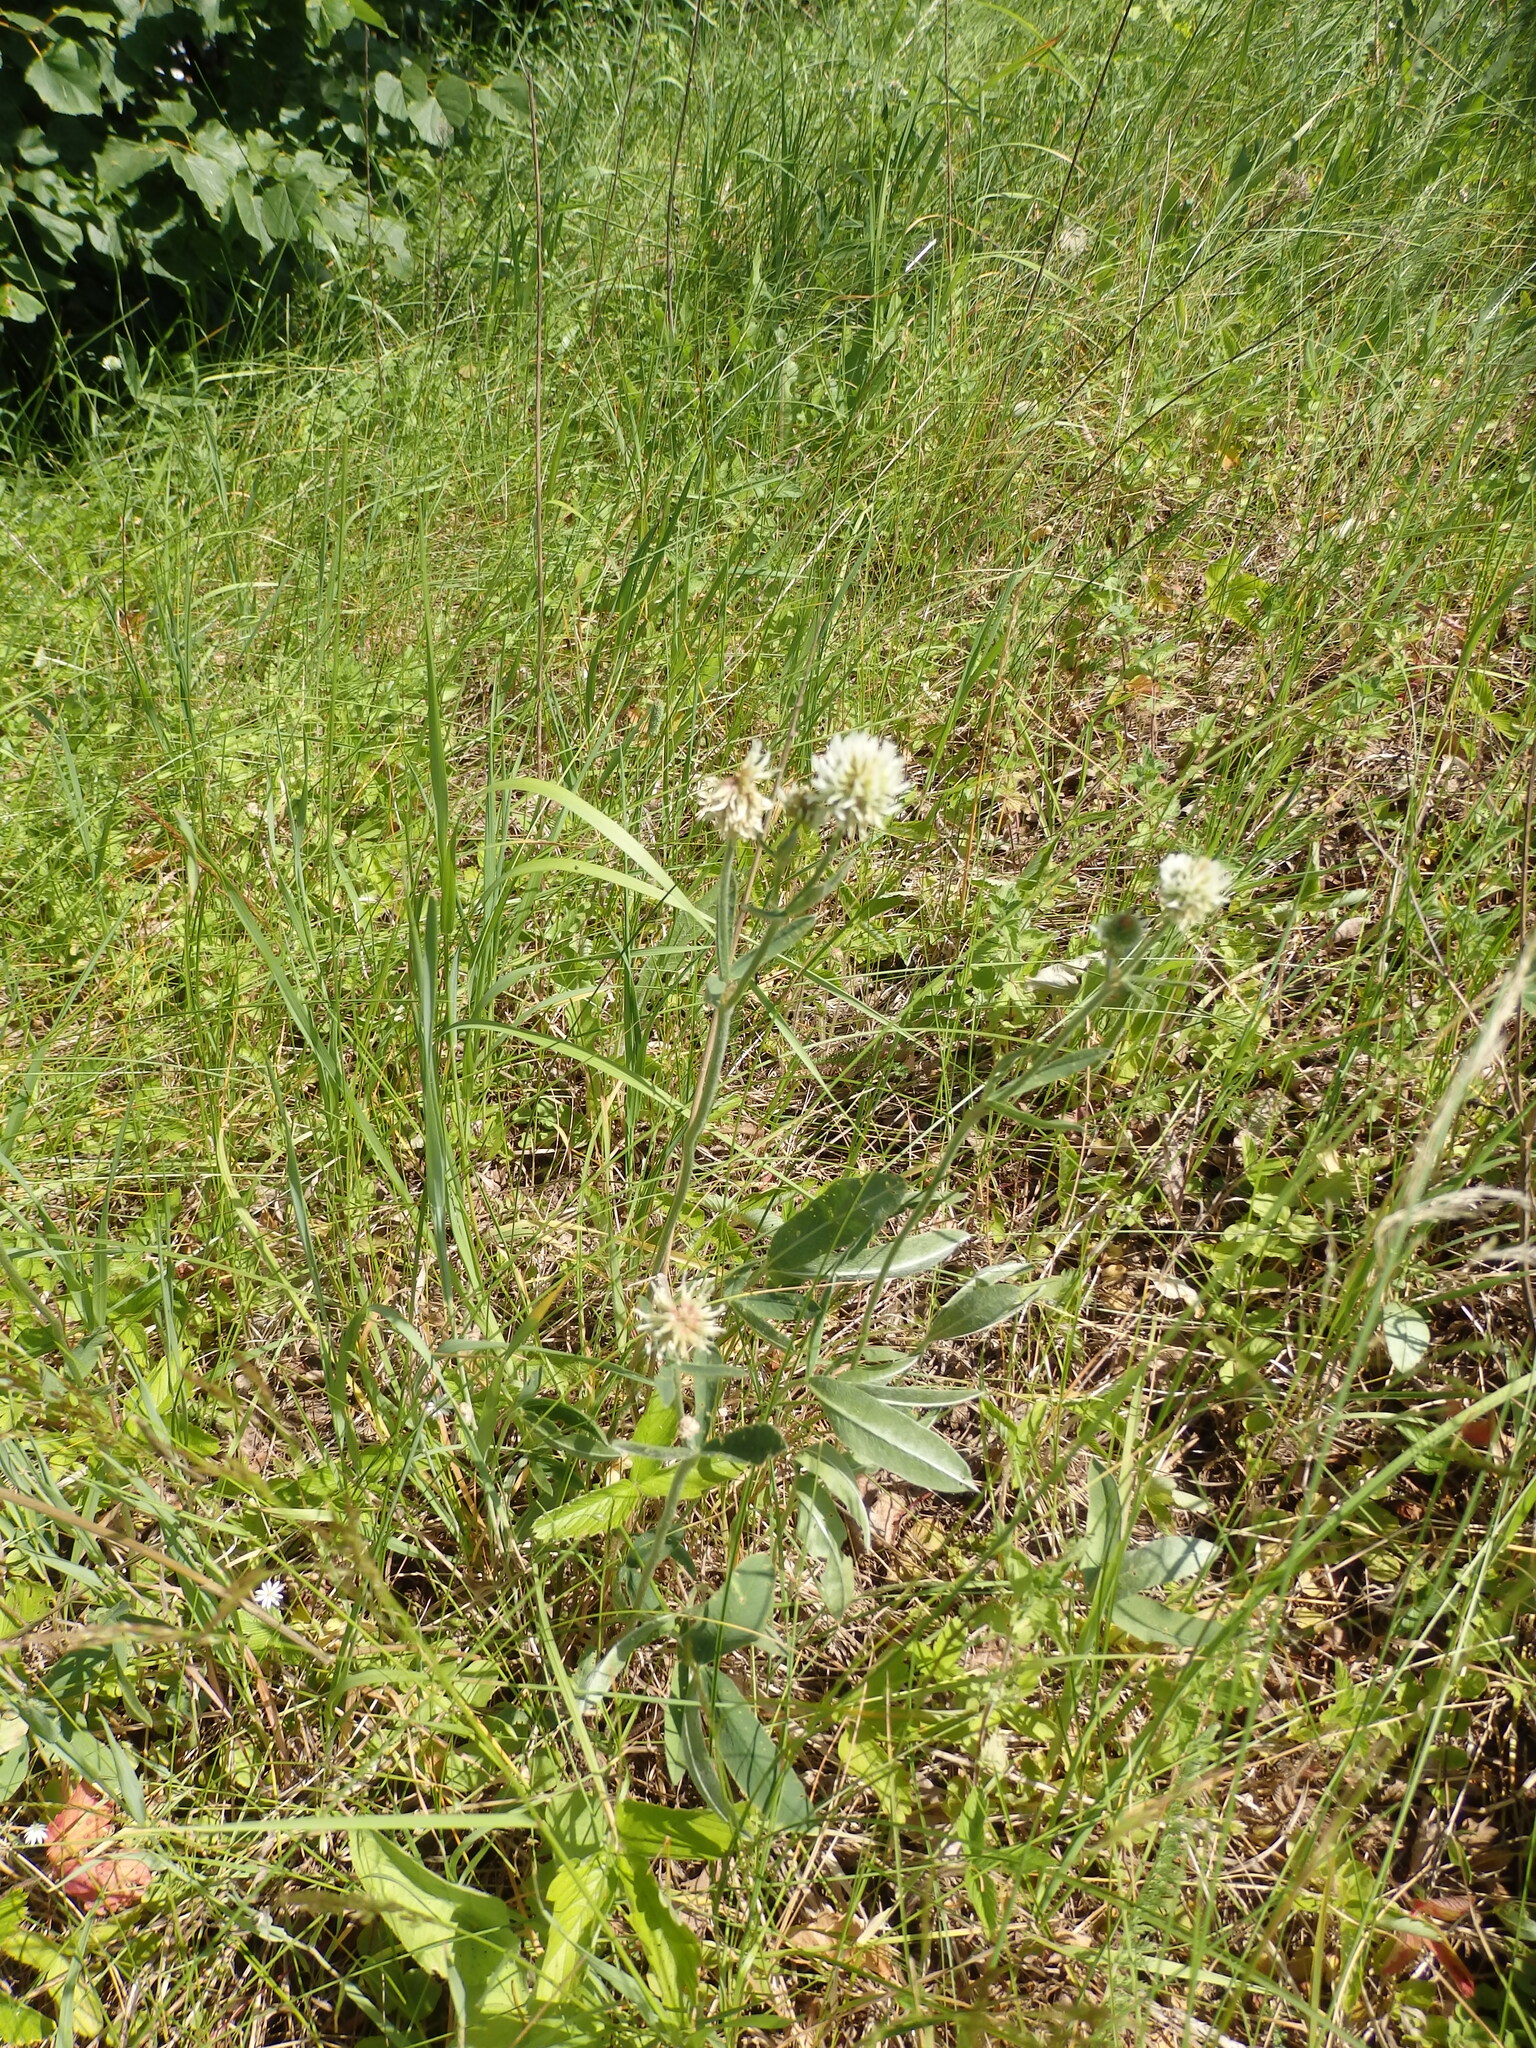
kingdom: Plantae
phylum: Tracheophyta
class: Magnoliopsida
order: Fabales
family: Fabaceae
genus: Trifolium
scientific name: Trifolium montanum
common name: Mountain clover
